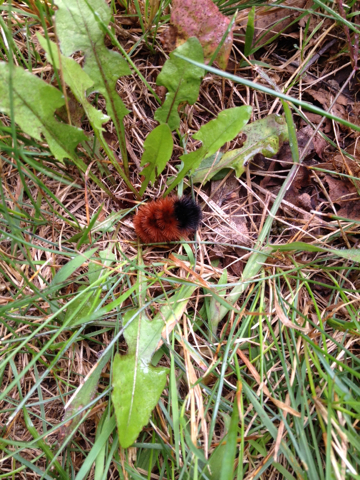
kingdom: Animalia
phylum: Arthropoda
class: Insecta
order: Lepidoptera
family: Erebidae
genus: Pyrrharctia
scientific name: Pyrrharctia isabella
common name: Isabella tiger moth
